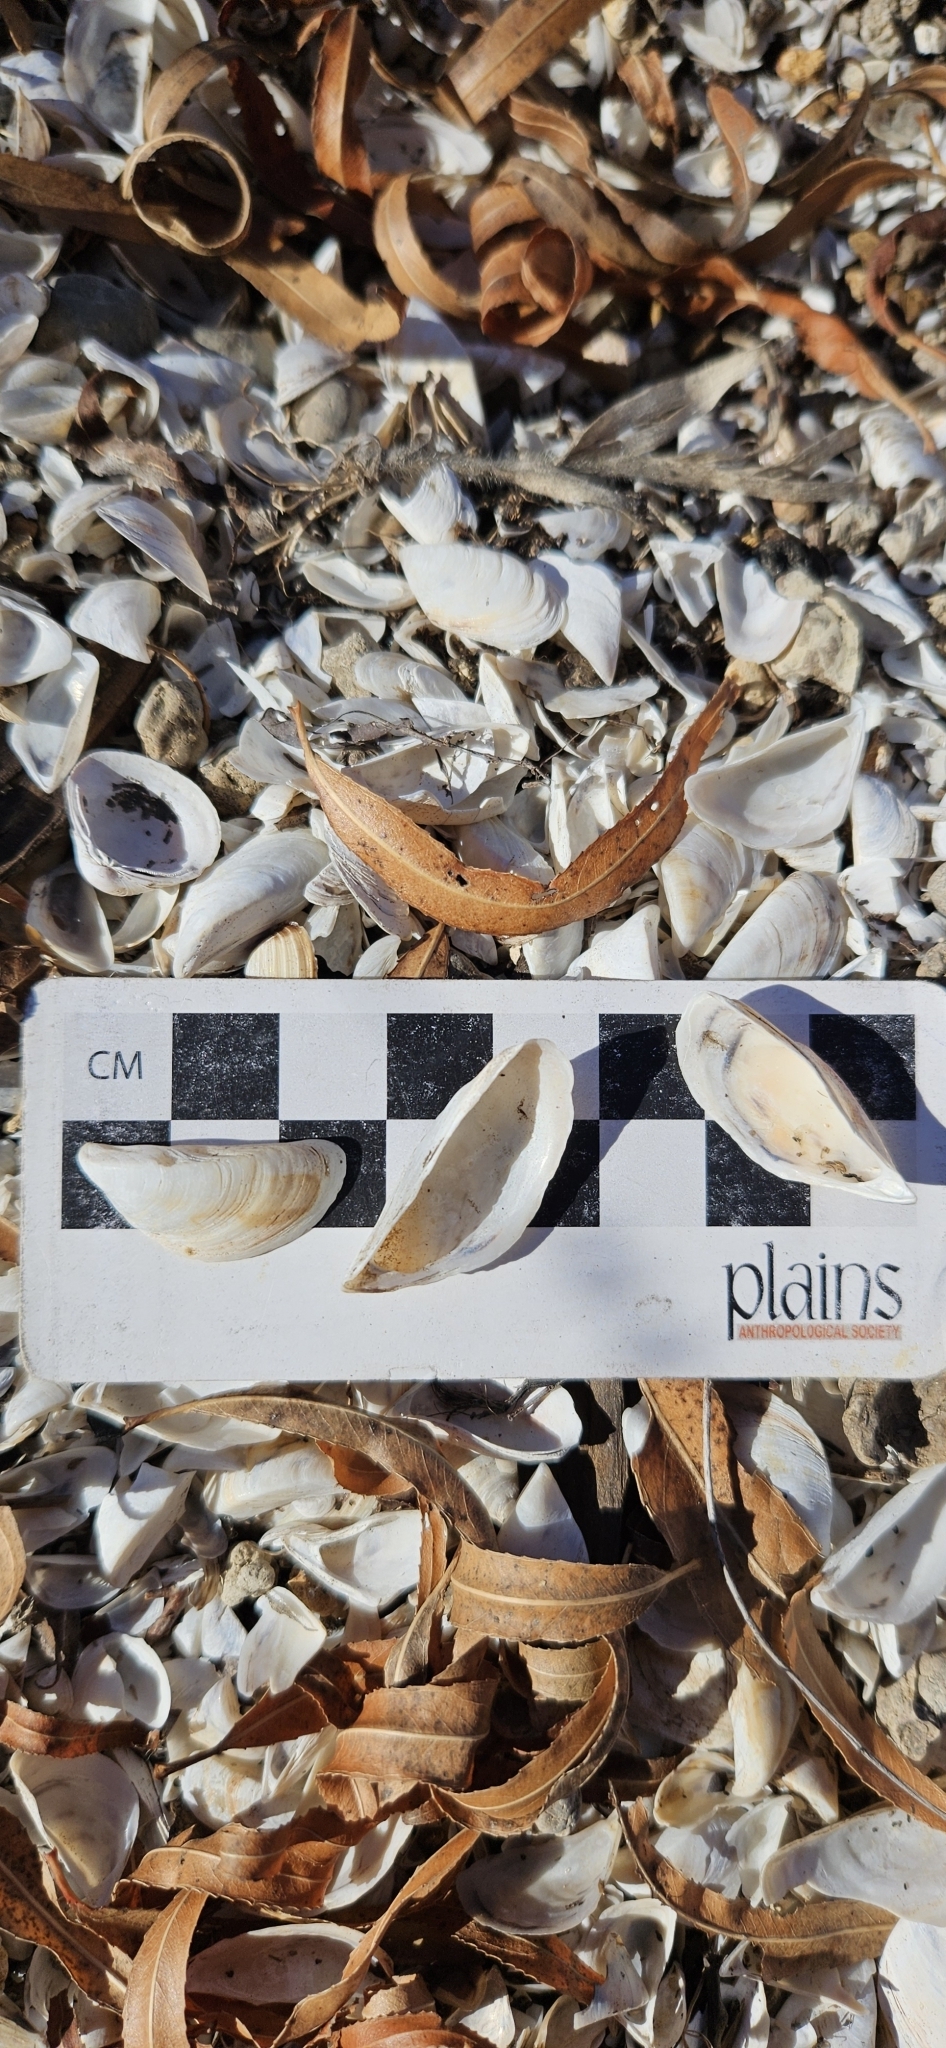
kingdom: Animalia
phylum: Mollusca
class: Bivalvia
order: Myida
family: Dreissenidae
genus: Dreissena
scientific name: Dreissena polymorpha
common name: Zebra mussel
